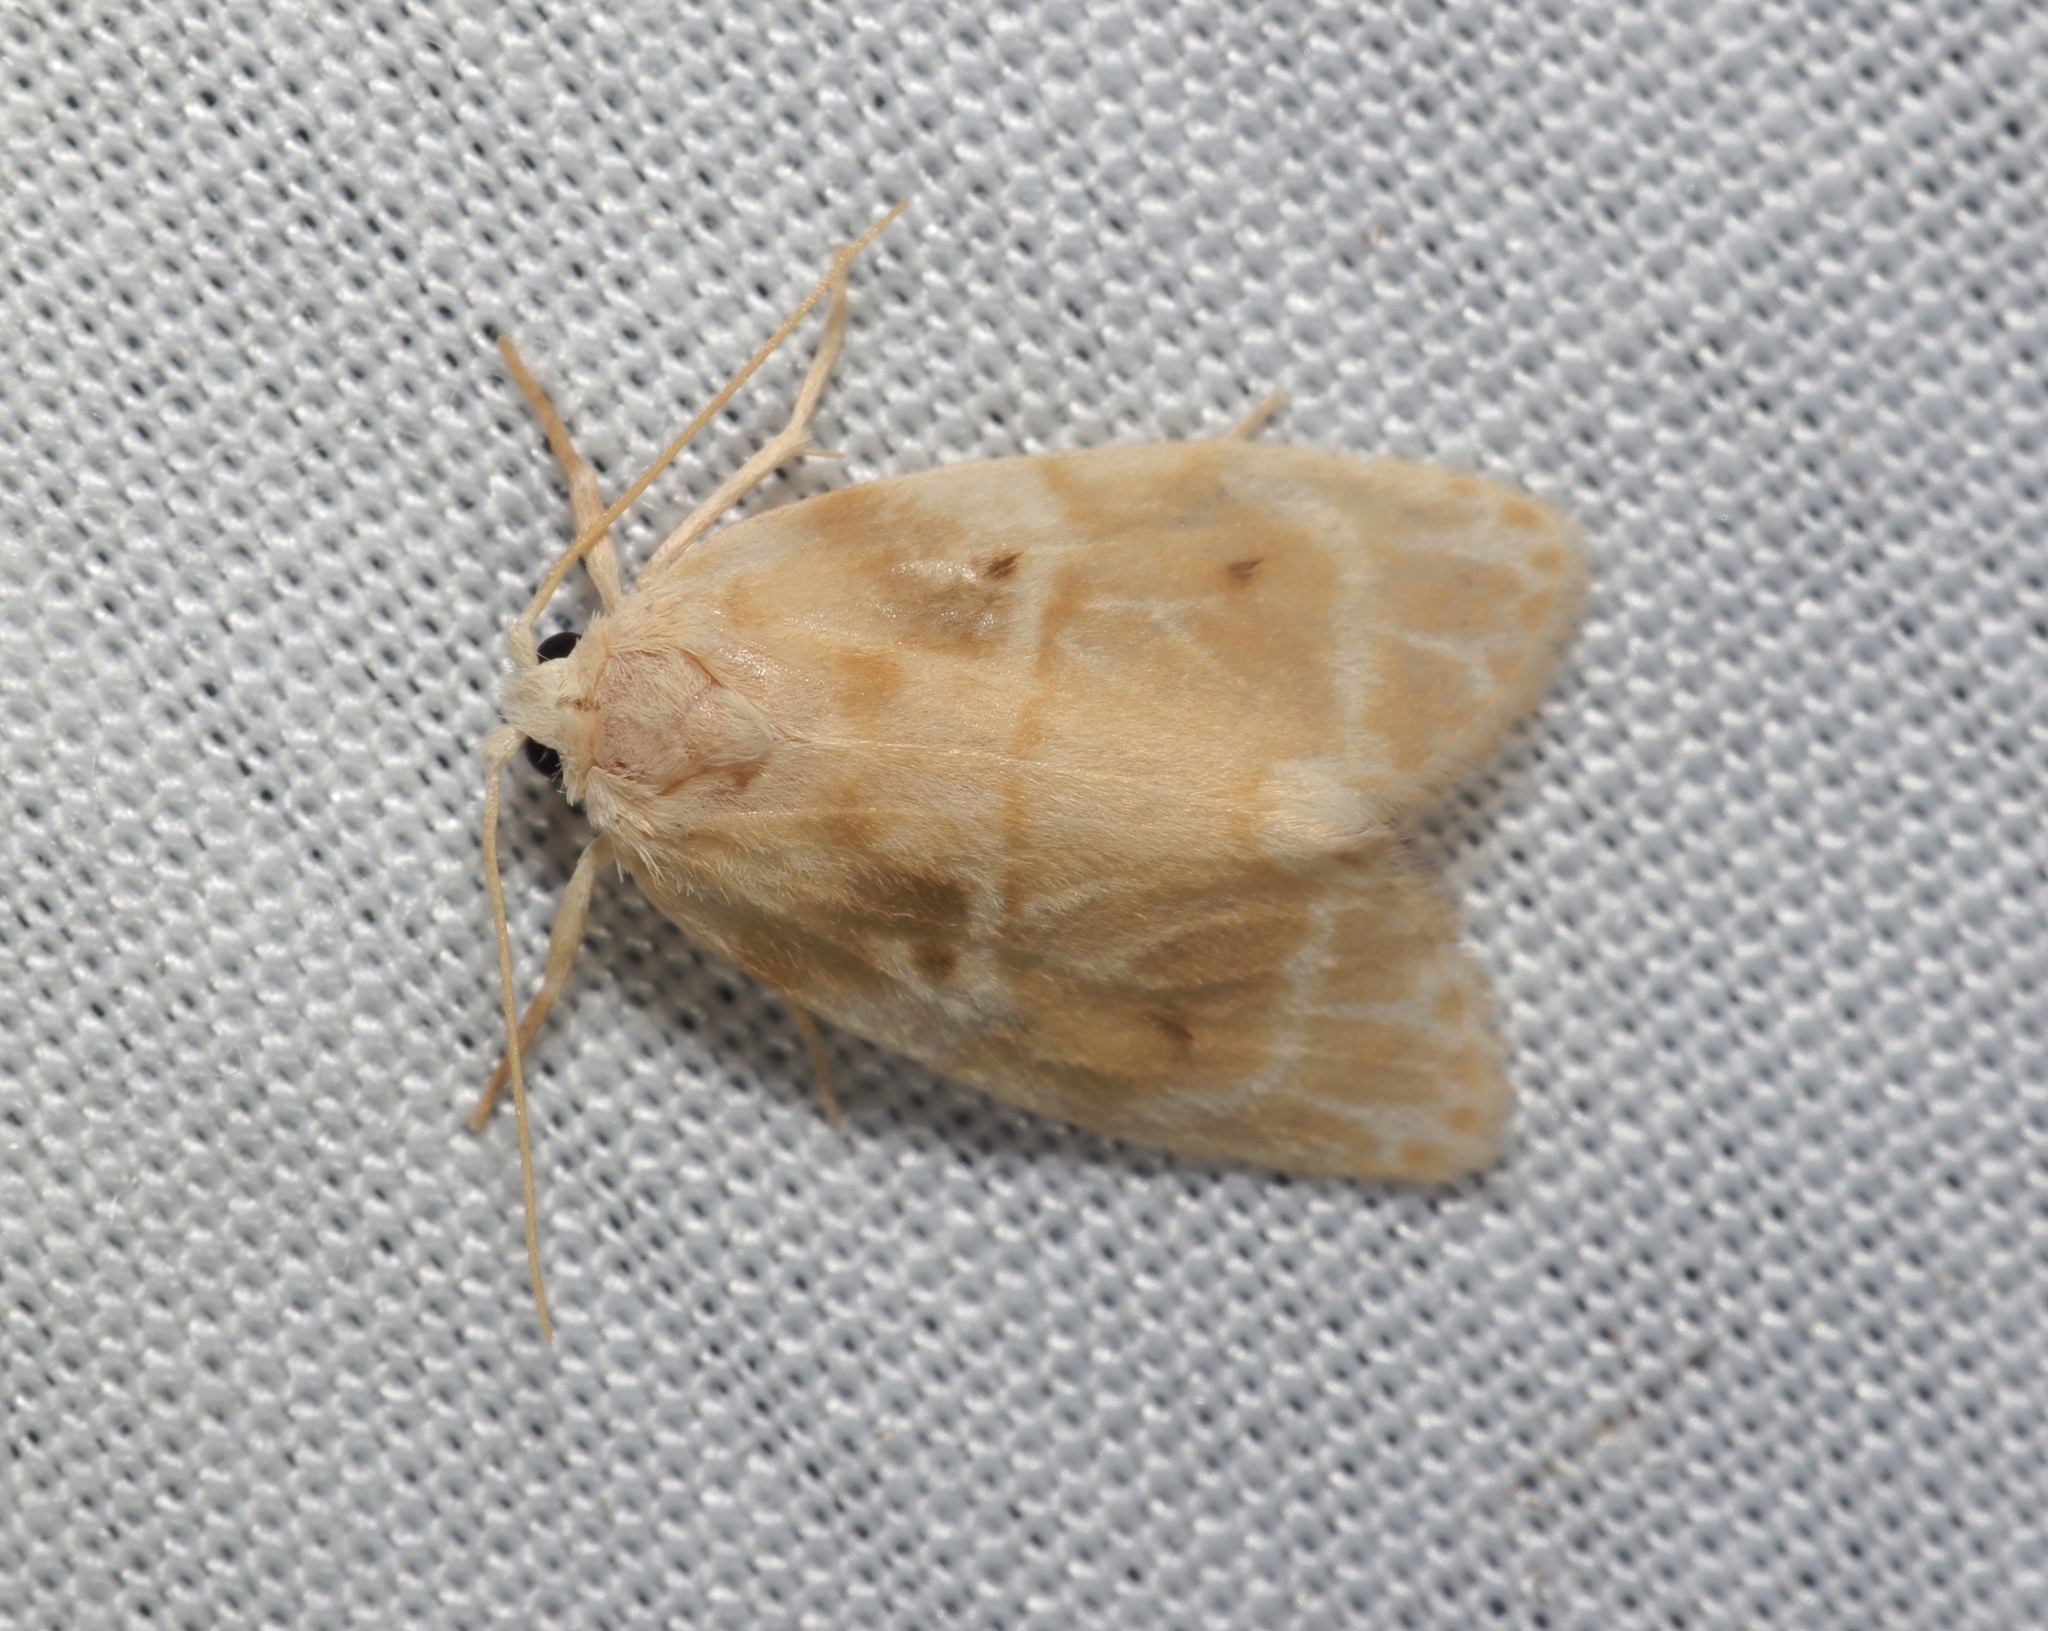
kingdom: Animalia
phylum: Arthropoda
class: Insecta
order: Lepidoptera
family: Erebidae
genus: Schistophleps
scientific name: Schistophleps bipuncta
